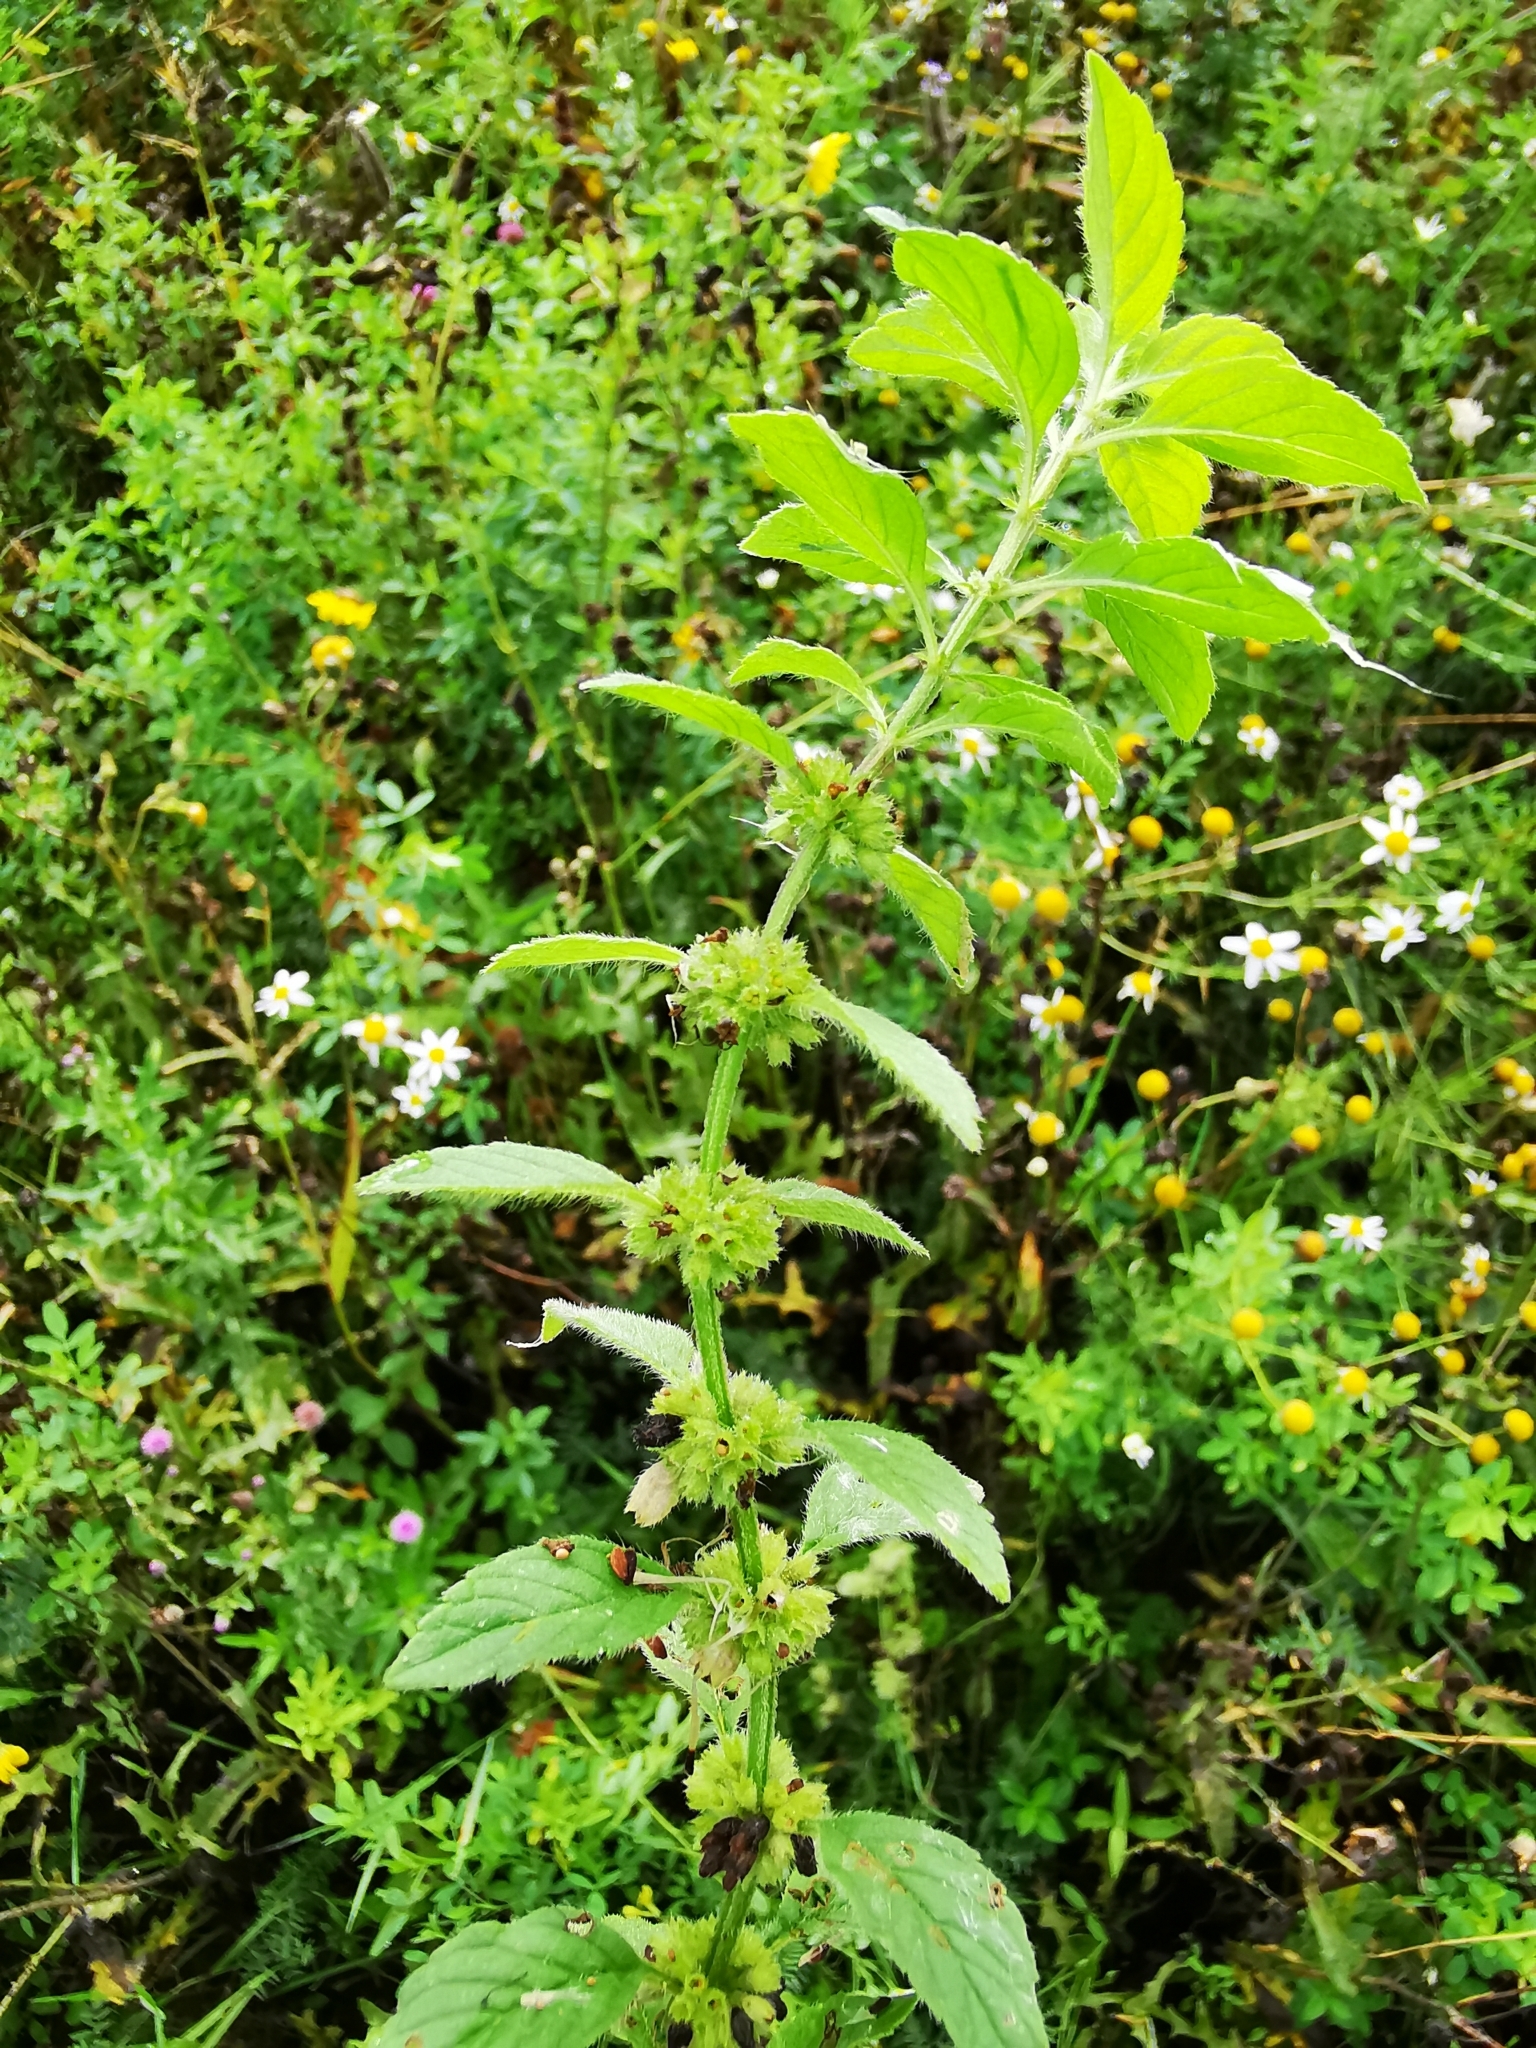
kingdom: Plantae
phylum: Tracheophyta
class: Magnoliopsida
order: Lamiales
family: Lamiaceae
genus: Mentha
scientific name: Mentha arvensis
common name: Corn mint
